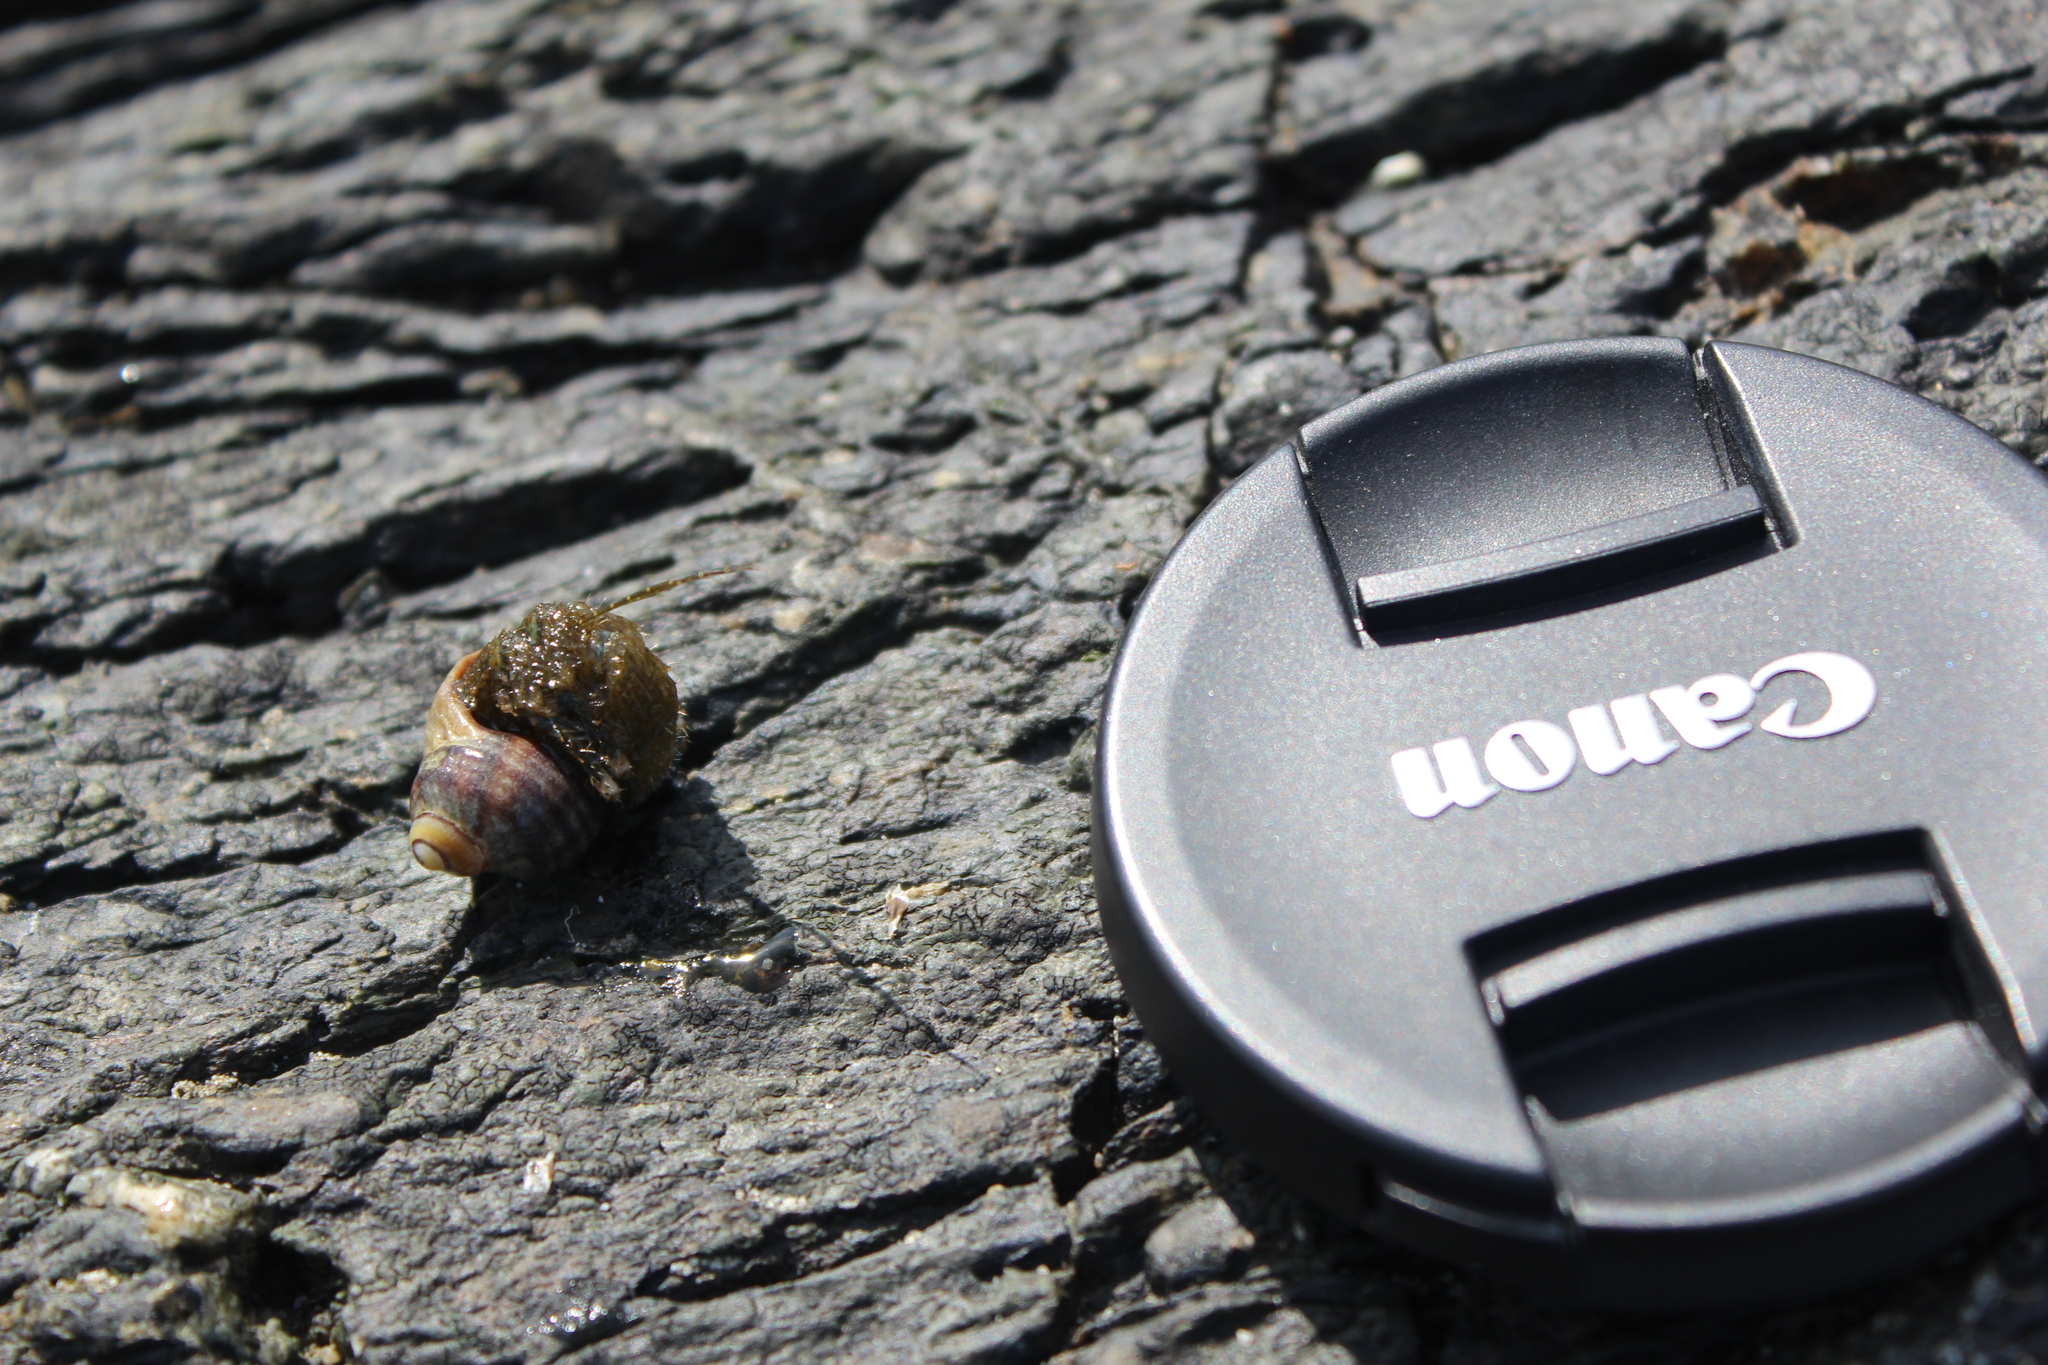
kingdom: Animalia
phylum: Arthropoda
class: Malacostraca
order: Decapoda
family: Paguridae
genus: Pagurus
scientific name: Pagurus hirsutiusculus
